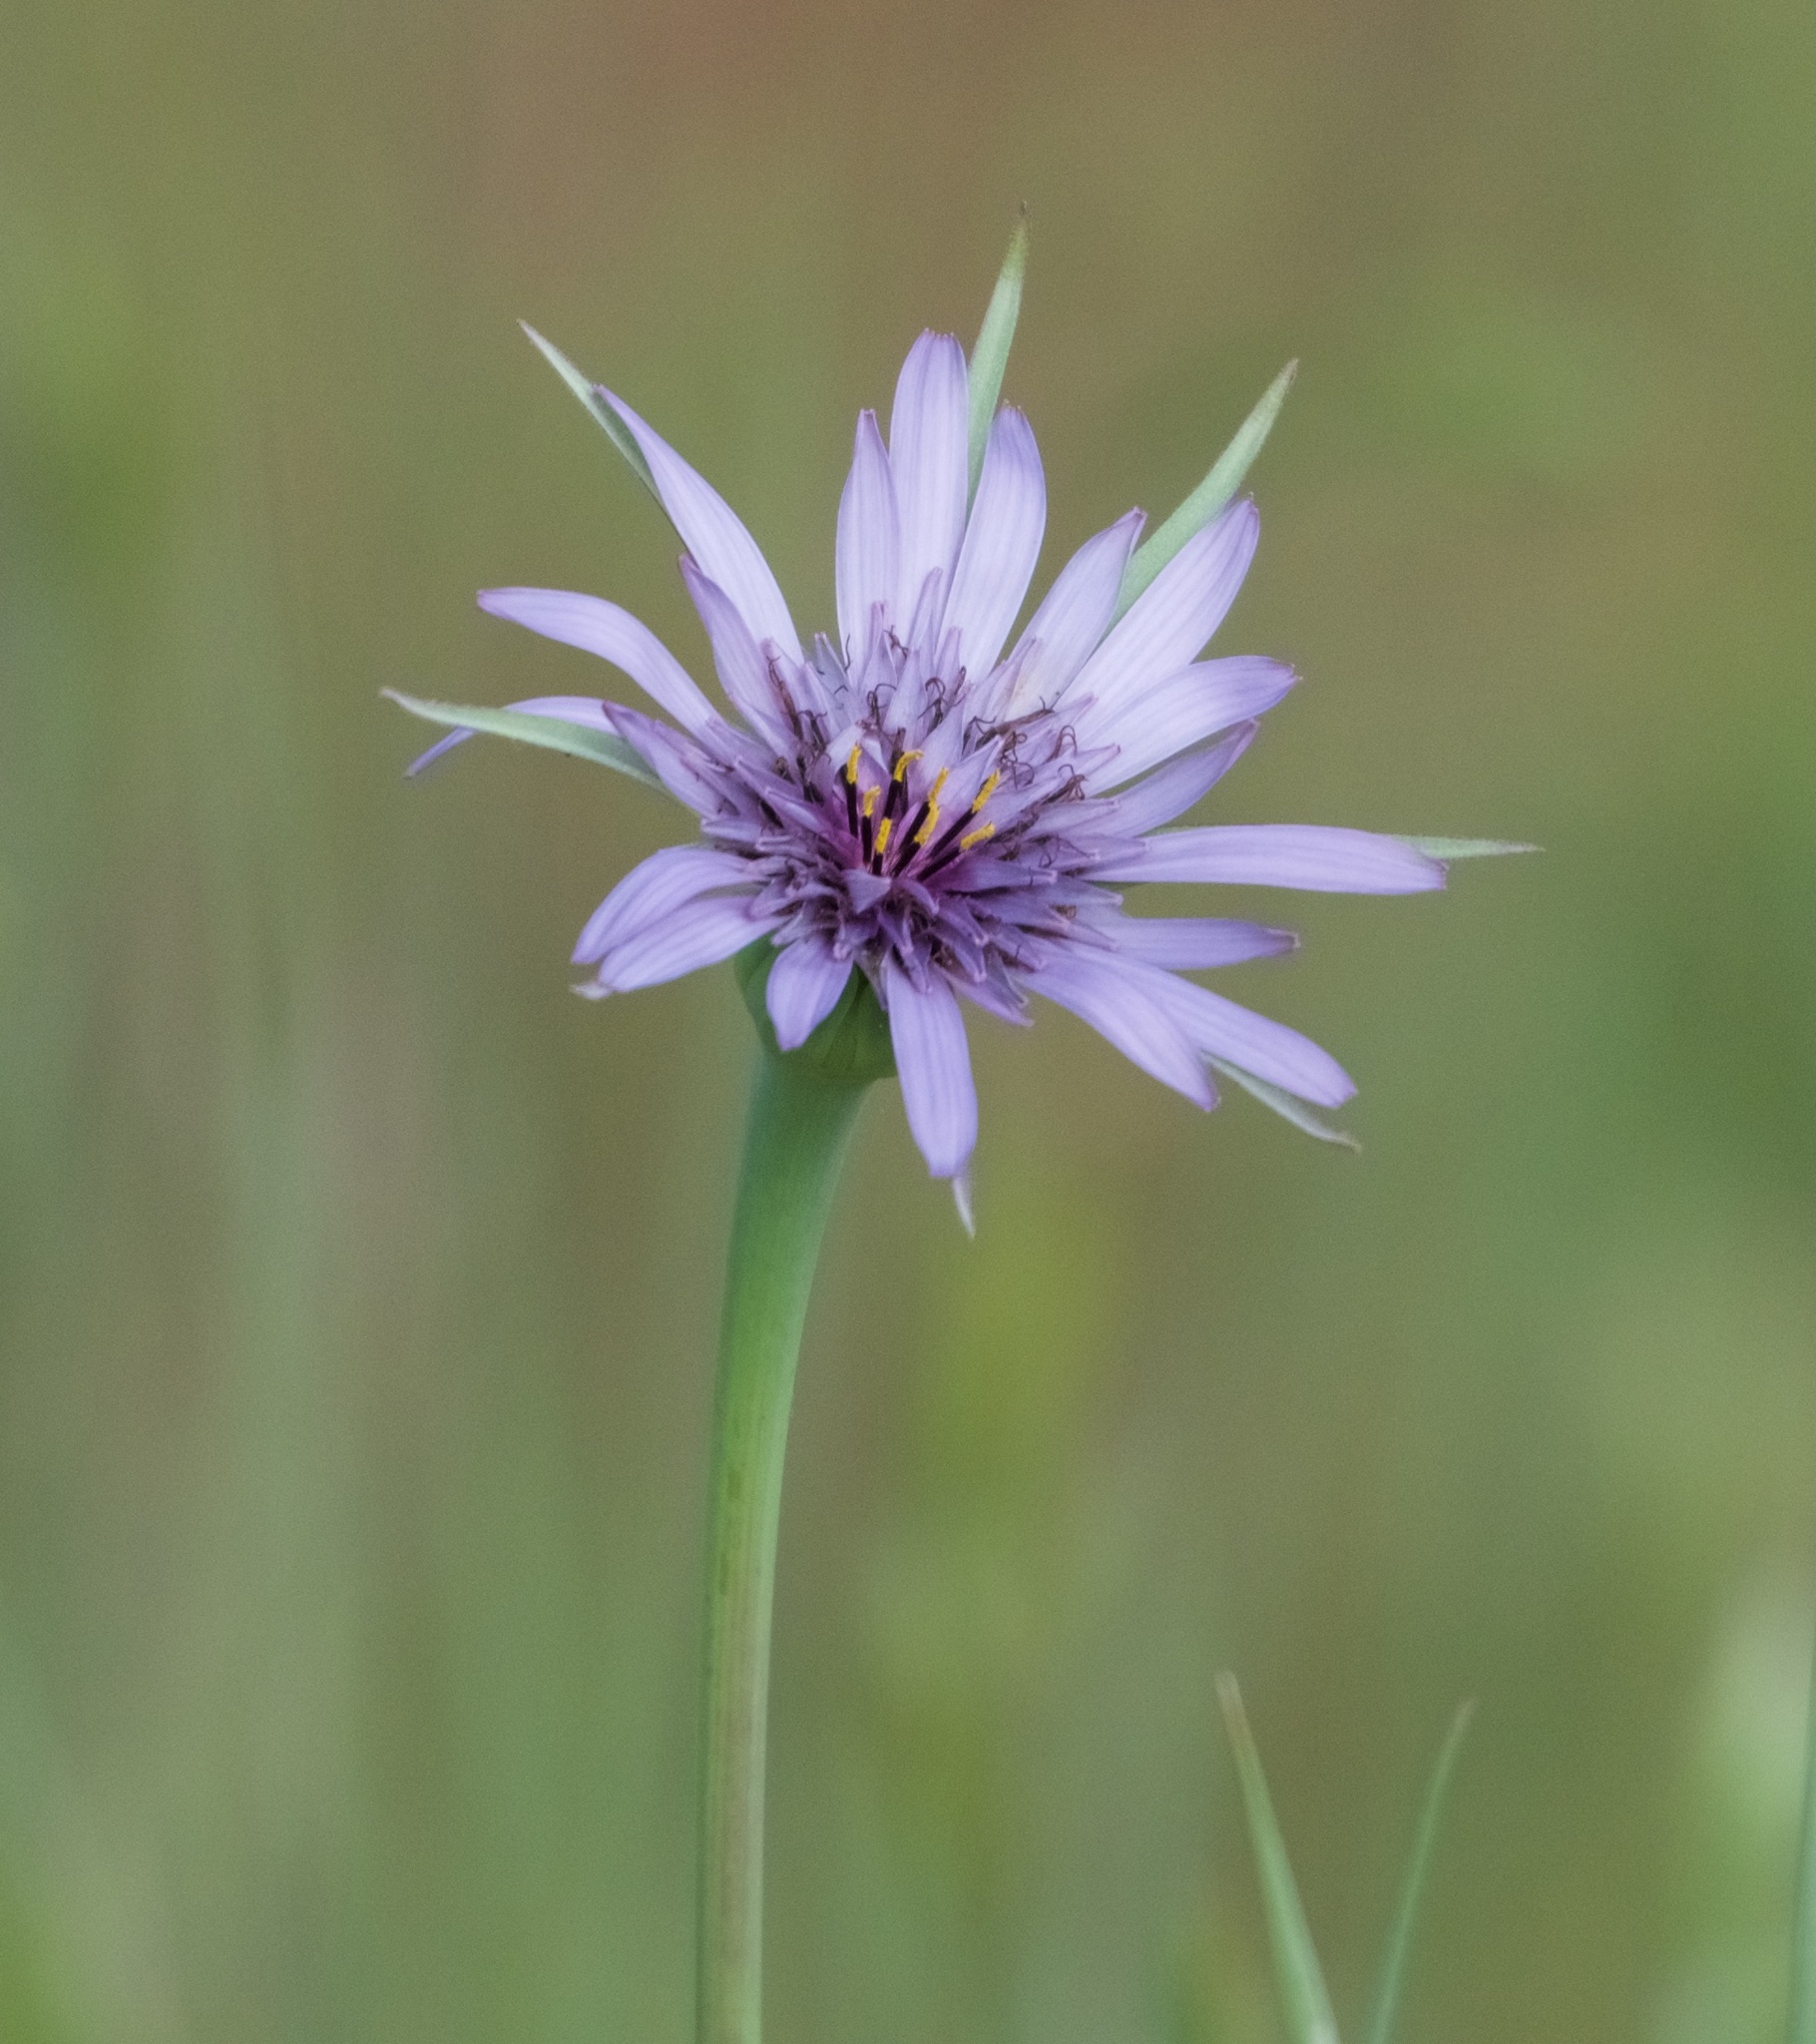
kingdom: Plantae
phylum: Tracheophyta
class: Magnoliopsida
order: Asterales
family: Asteraceae
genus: Tragopogon
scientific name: Tragopogon porrifolius
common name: Salsify
